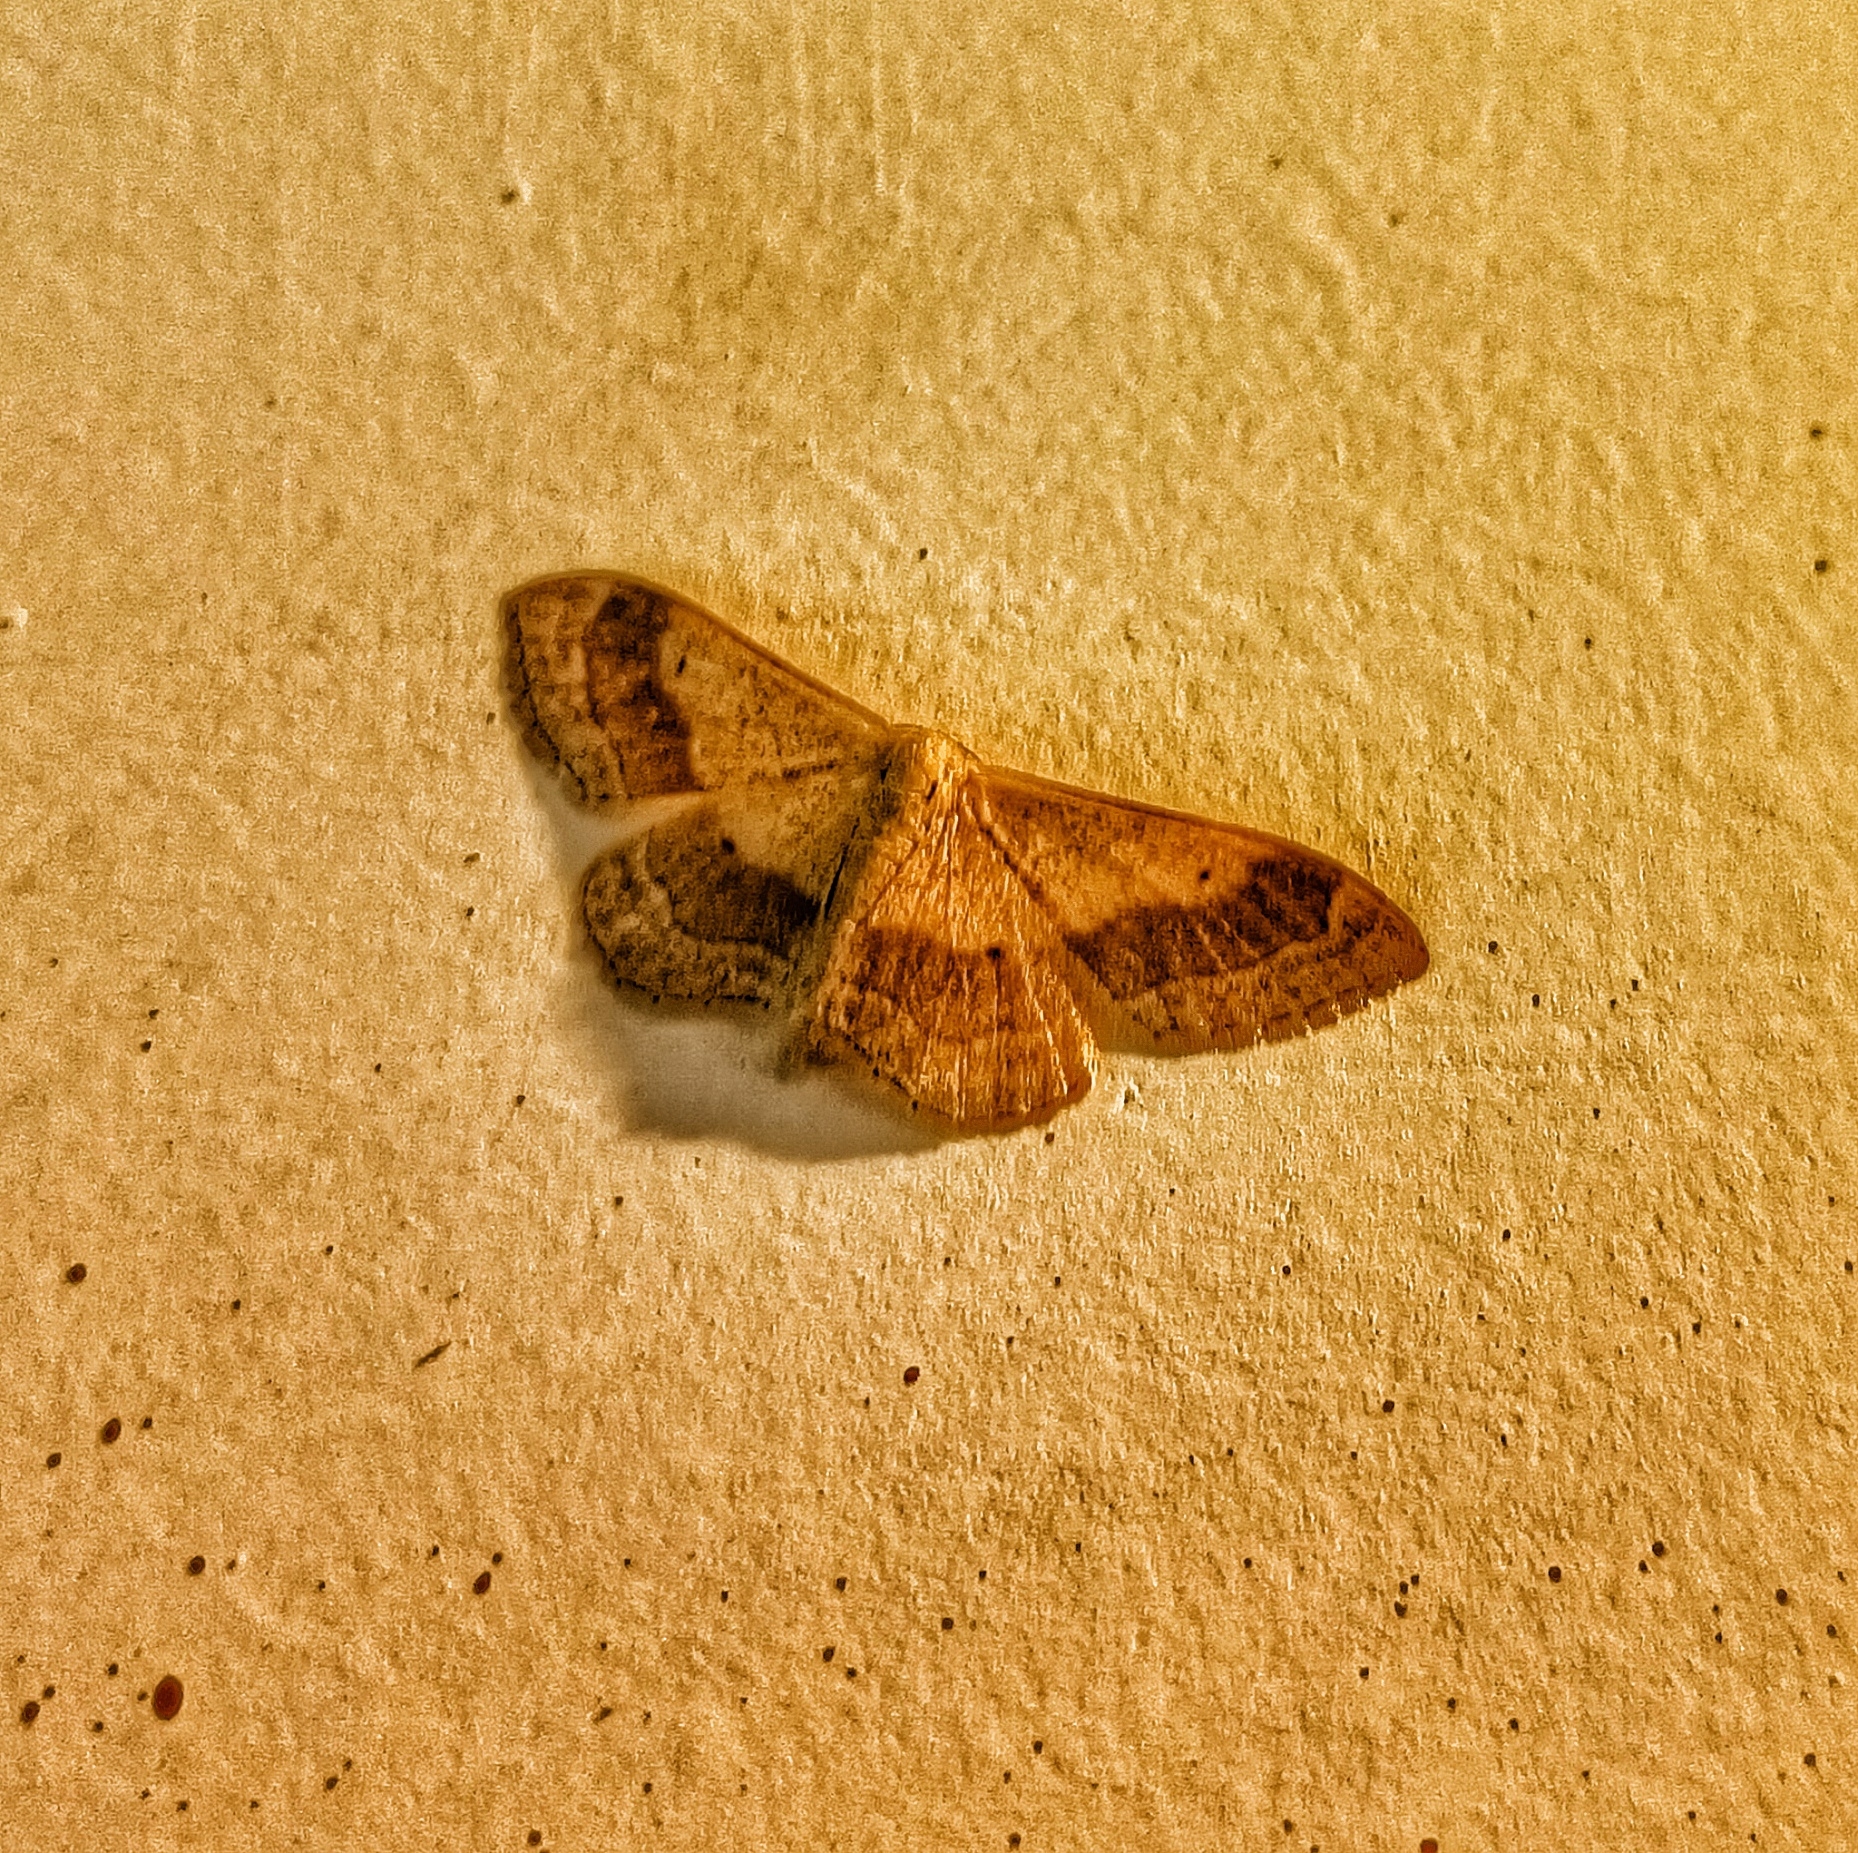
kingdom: Animalia
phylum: Arthropoda
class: Insecta
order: Lepidoptera
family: Geometridae
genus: Idaea
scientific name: Idaea aversata
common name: Riband wave
